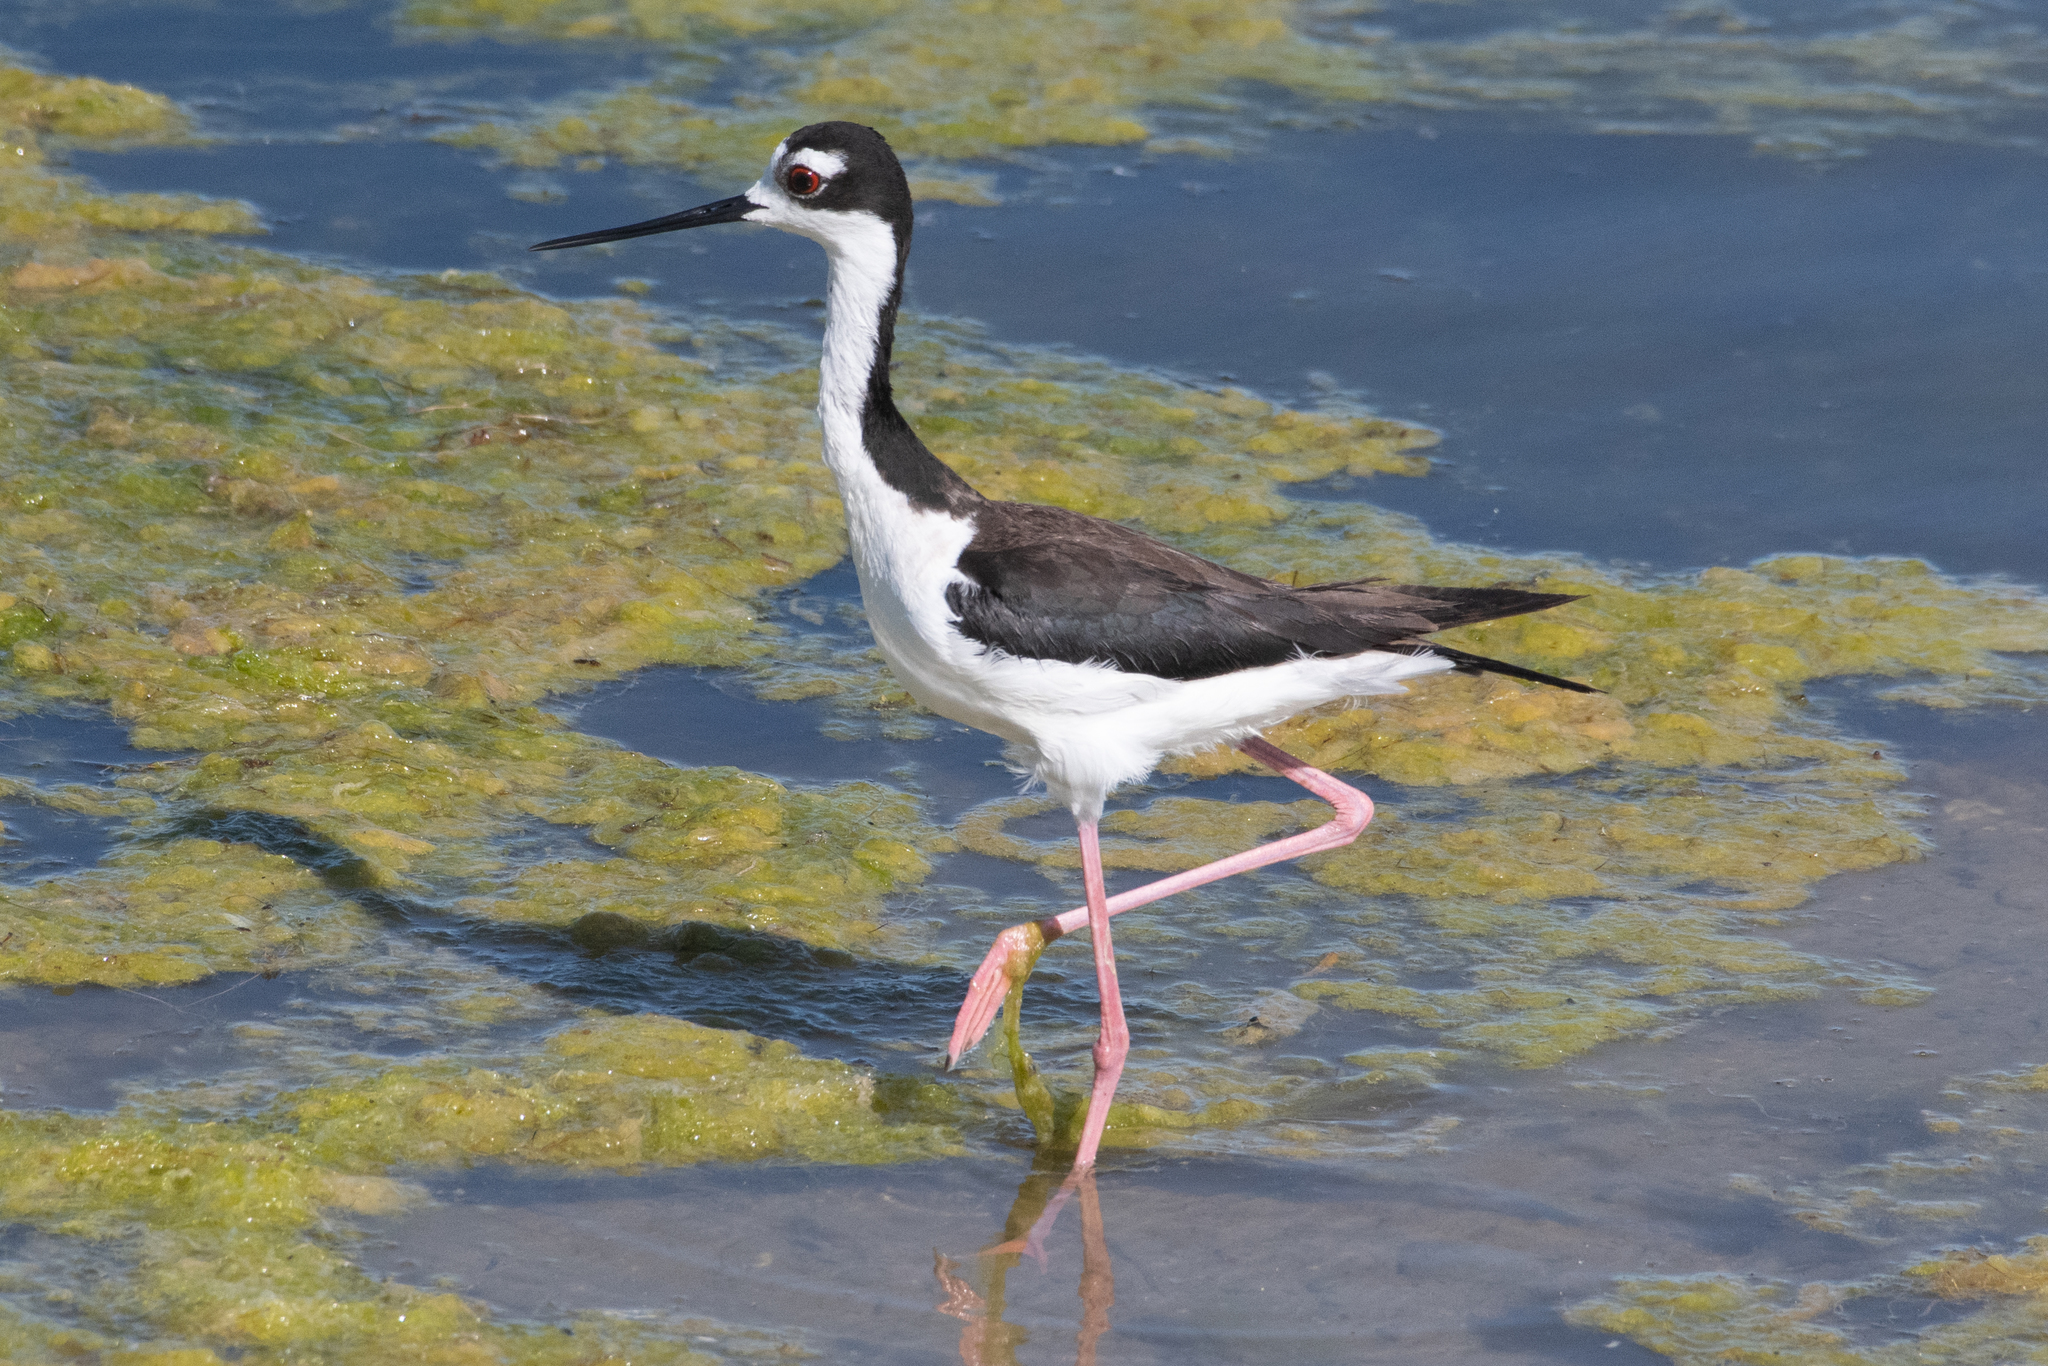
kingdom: Animalia
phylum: Chordata
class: Aves
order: Charadriiformes
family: Recurvirostridae
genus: Himantopus
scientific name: Himantopus mexicanus
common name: Black-necked stilt
